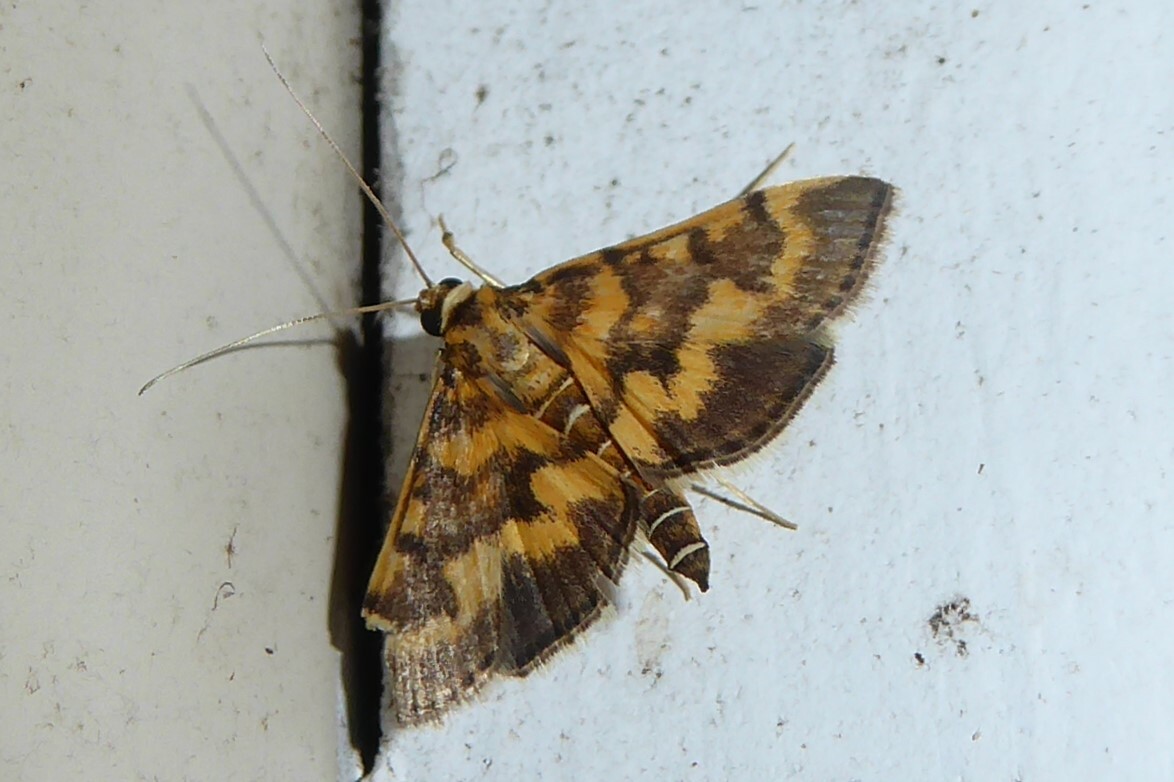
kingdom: Animalia
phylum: Arthropoda
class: Insecta
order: Lepidoptera
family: Crambidae
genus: Omiodes
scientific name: Omiodes diemenalis
